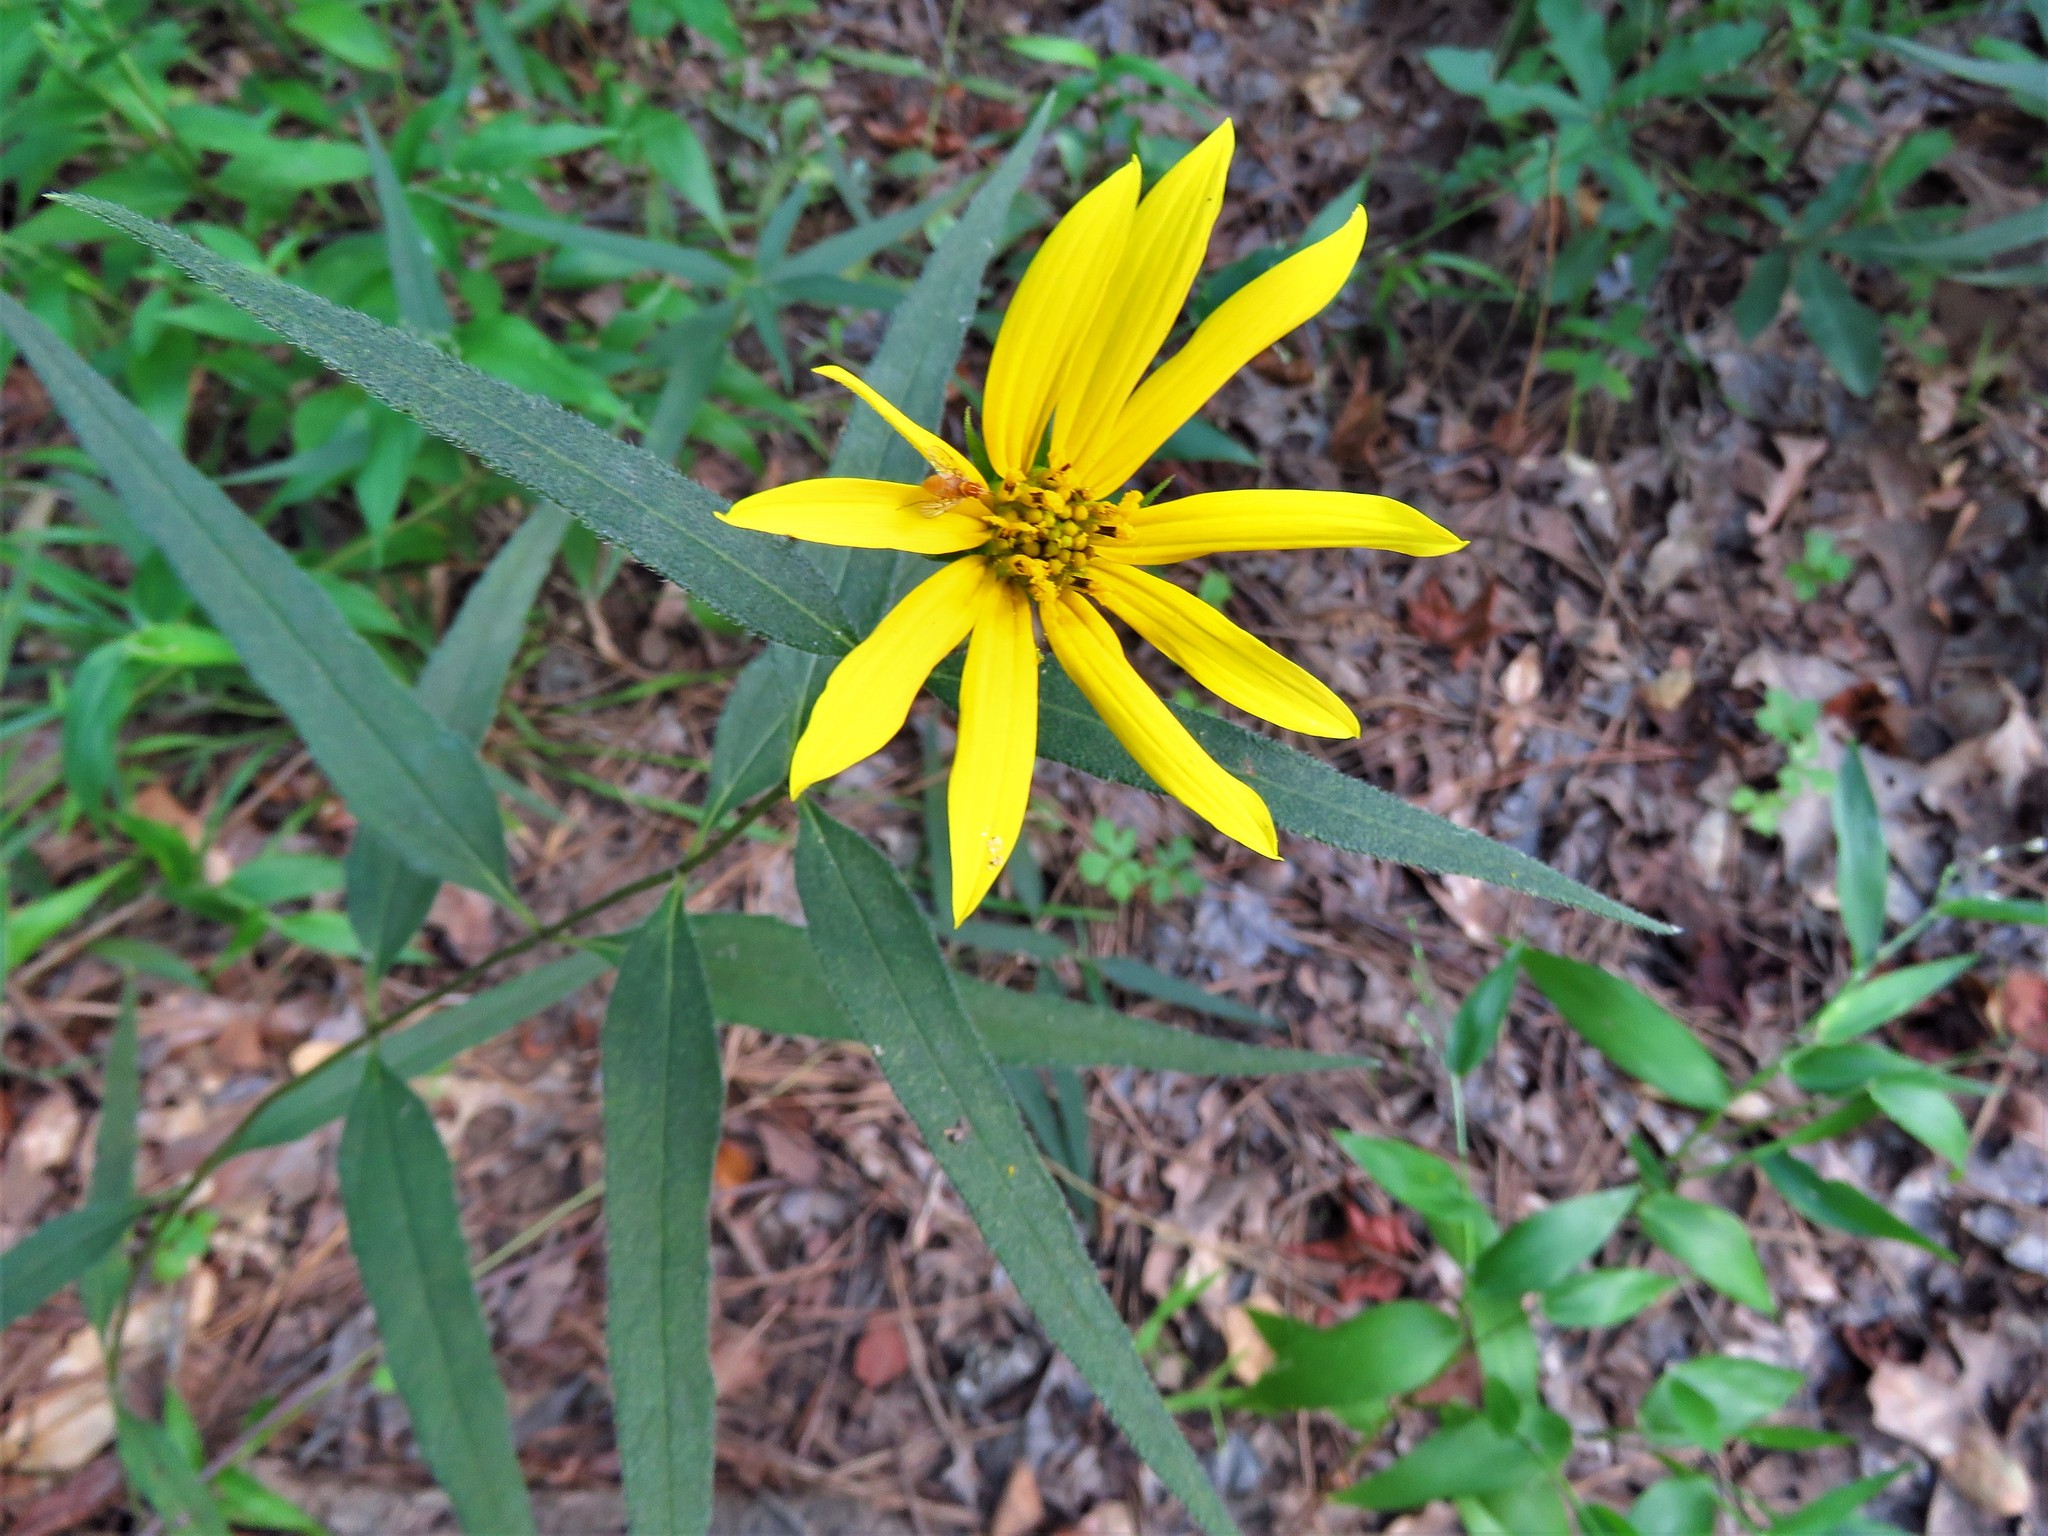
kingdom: Plantae
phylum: Tracheophyta
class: Magnoliopsida
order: Asterales
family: Asteraceae
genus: Helianthus
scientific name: Helianthus hirsutus
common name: Hairy sunflower
